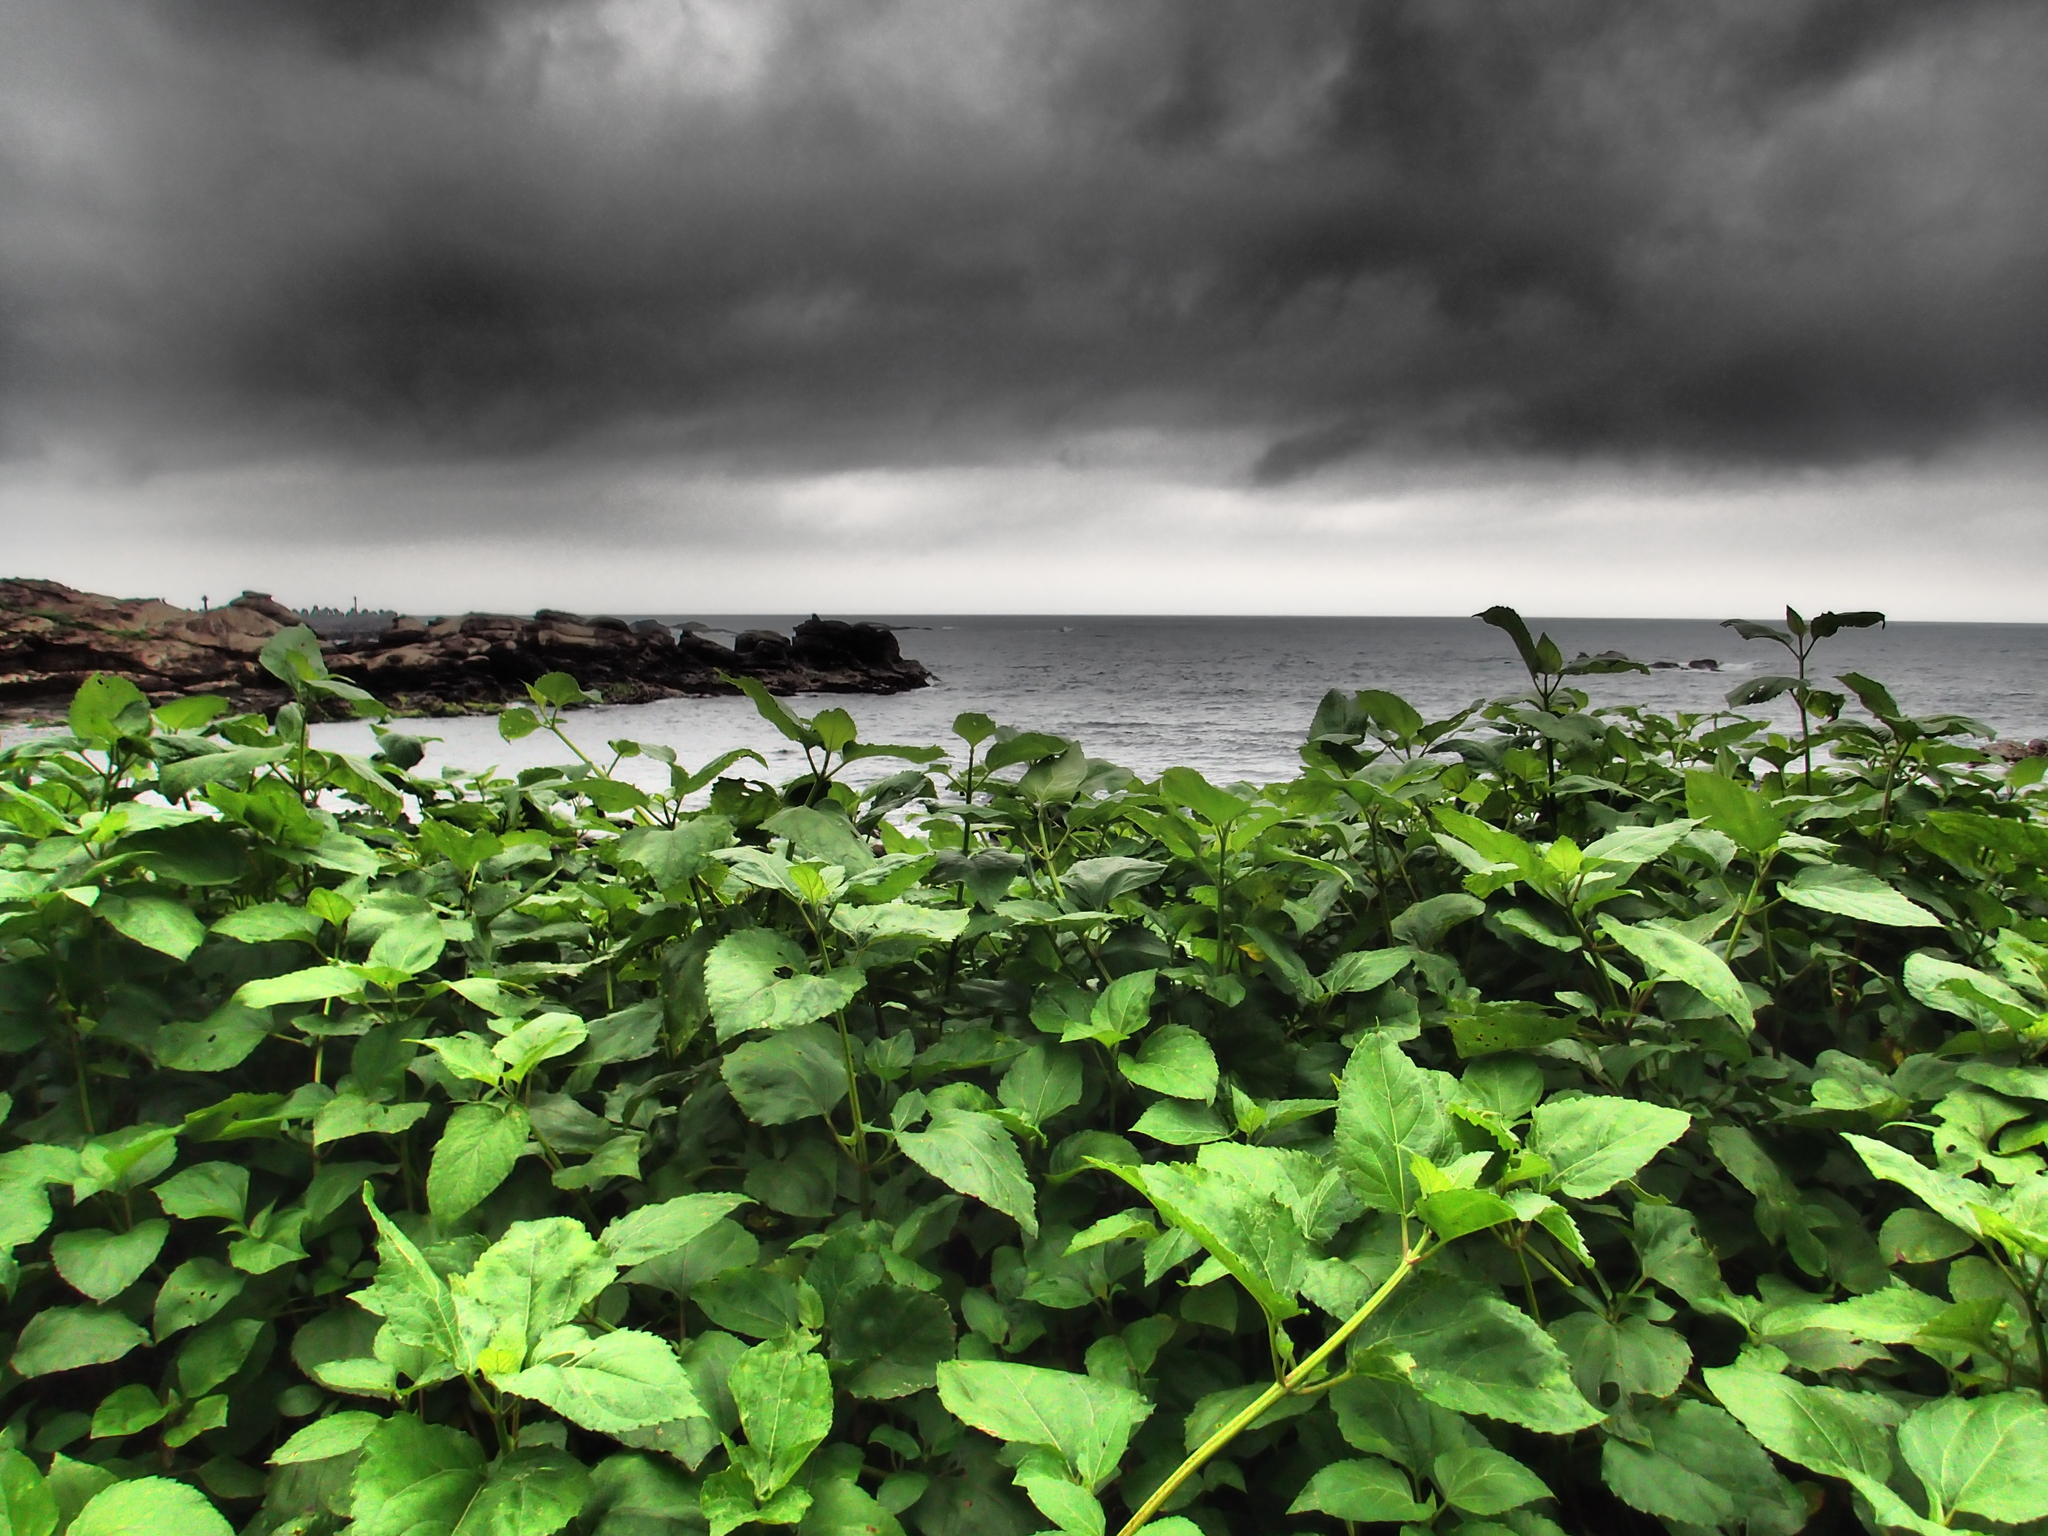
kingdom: Plantae
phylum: Tracheophyta
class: Magnoliopsida
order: Asterales
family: Asteraceae
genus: Wollastonia
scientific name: Wollastonia biflora
